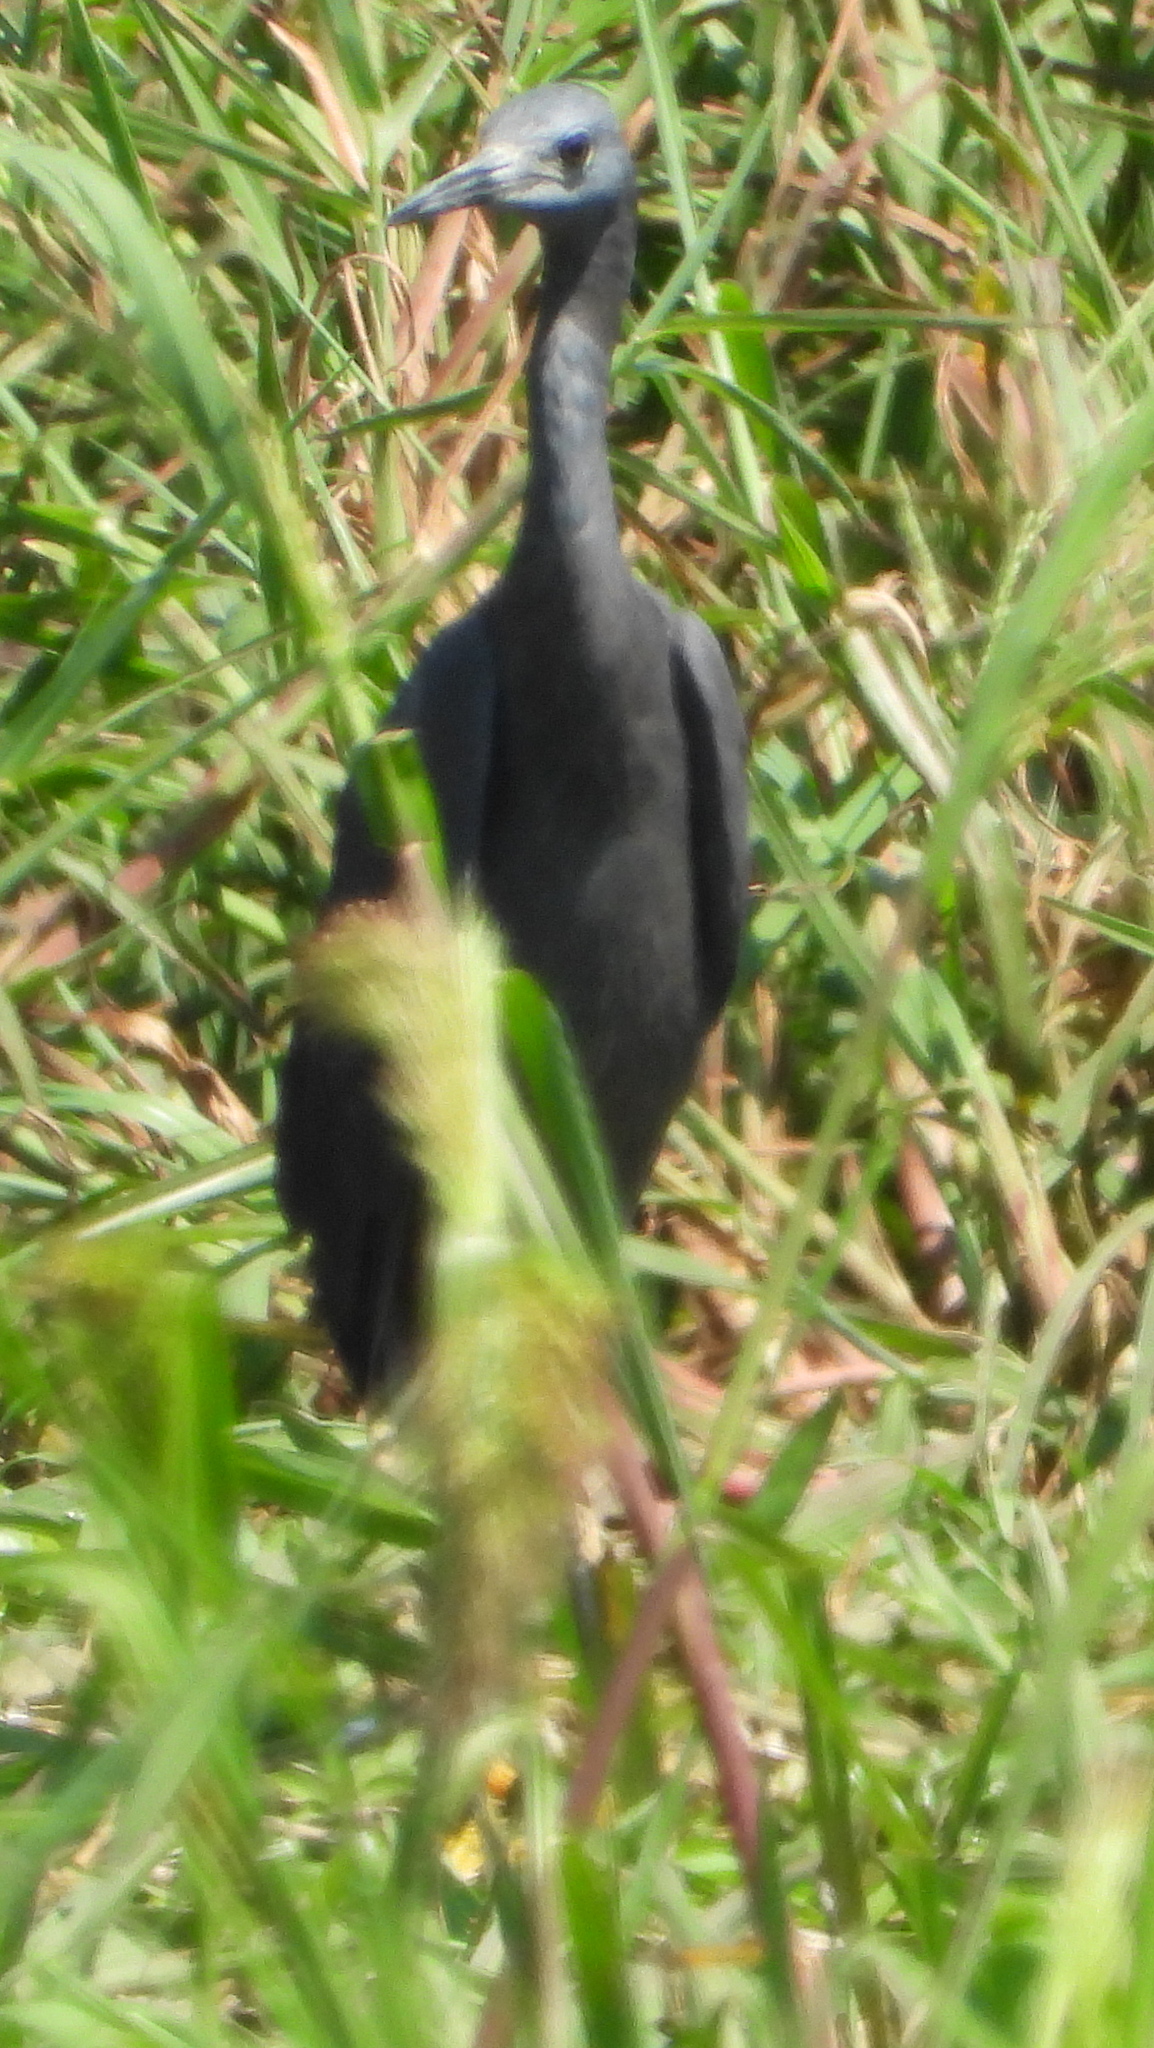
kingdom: Animalia
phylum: Chordata
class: Aves
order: Pelecaniformes
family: Ardeidae
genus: Egretta
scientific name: Egretta ardesiaca
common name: Black heron
